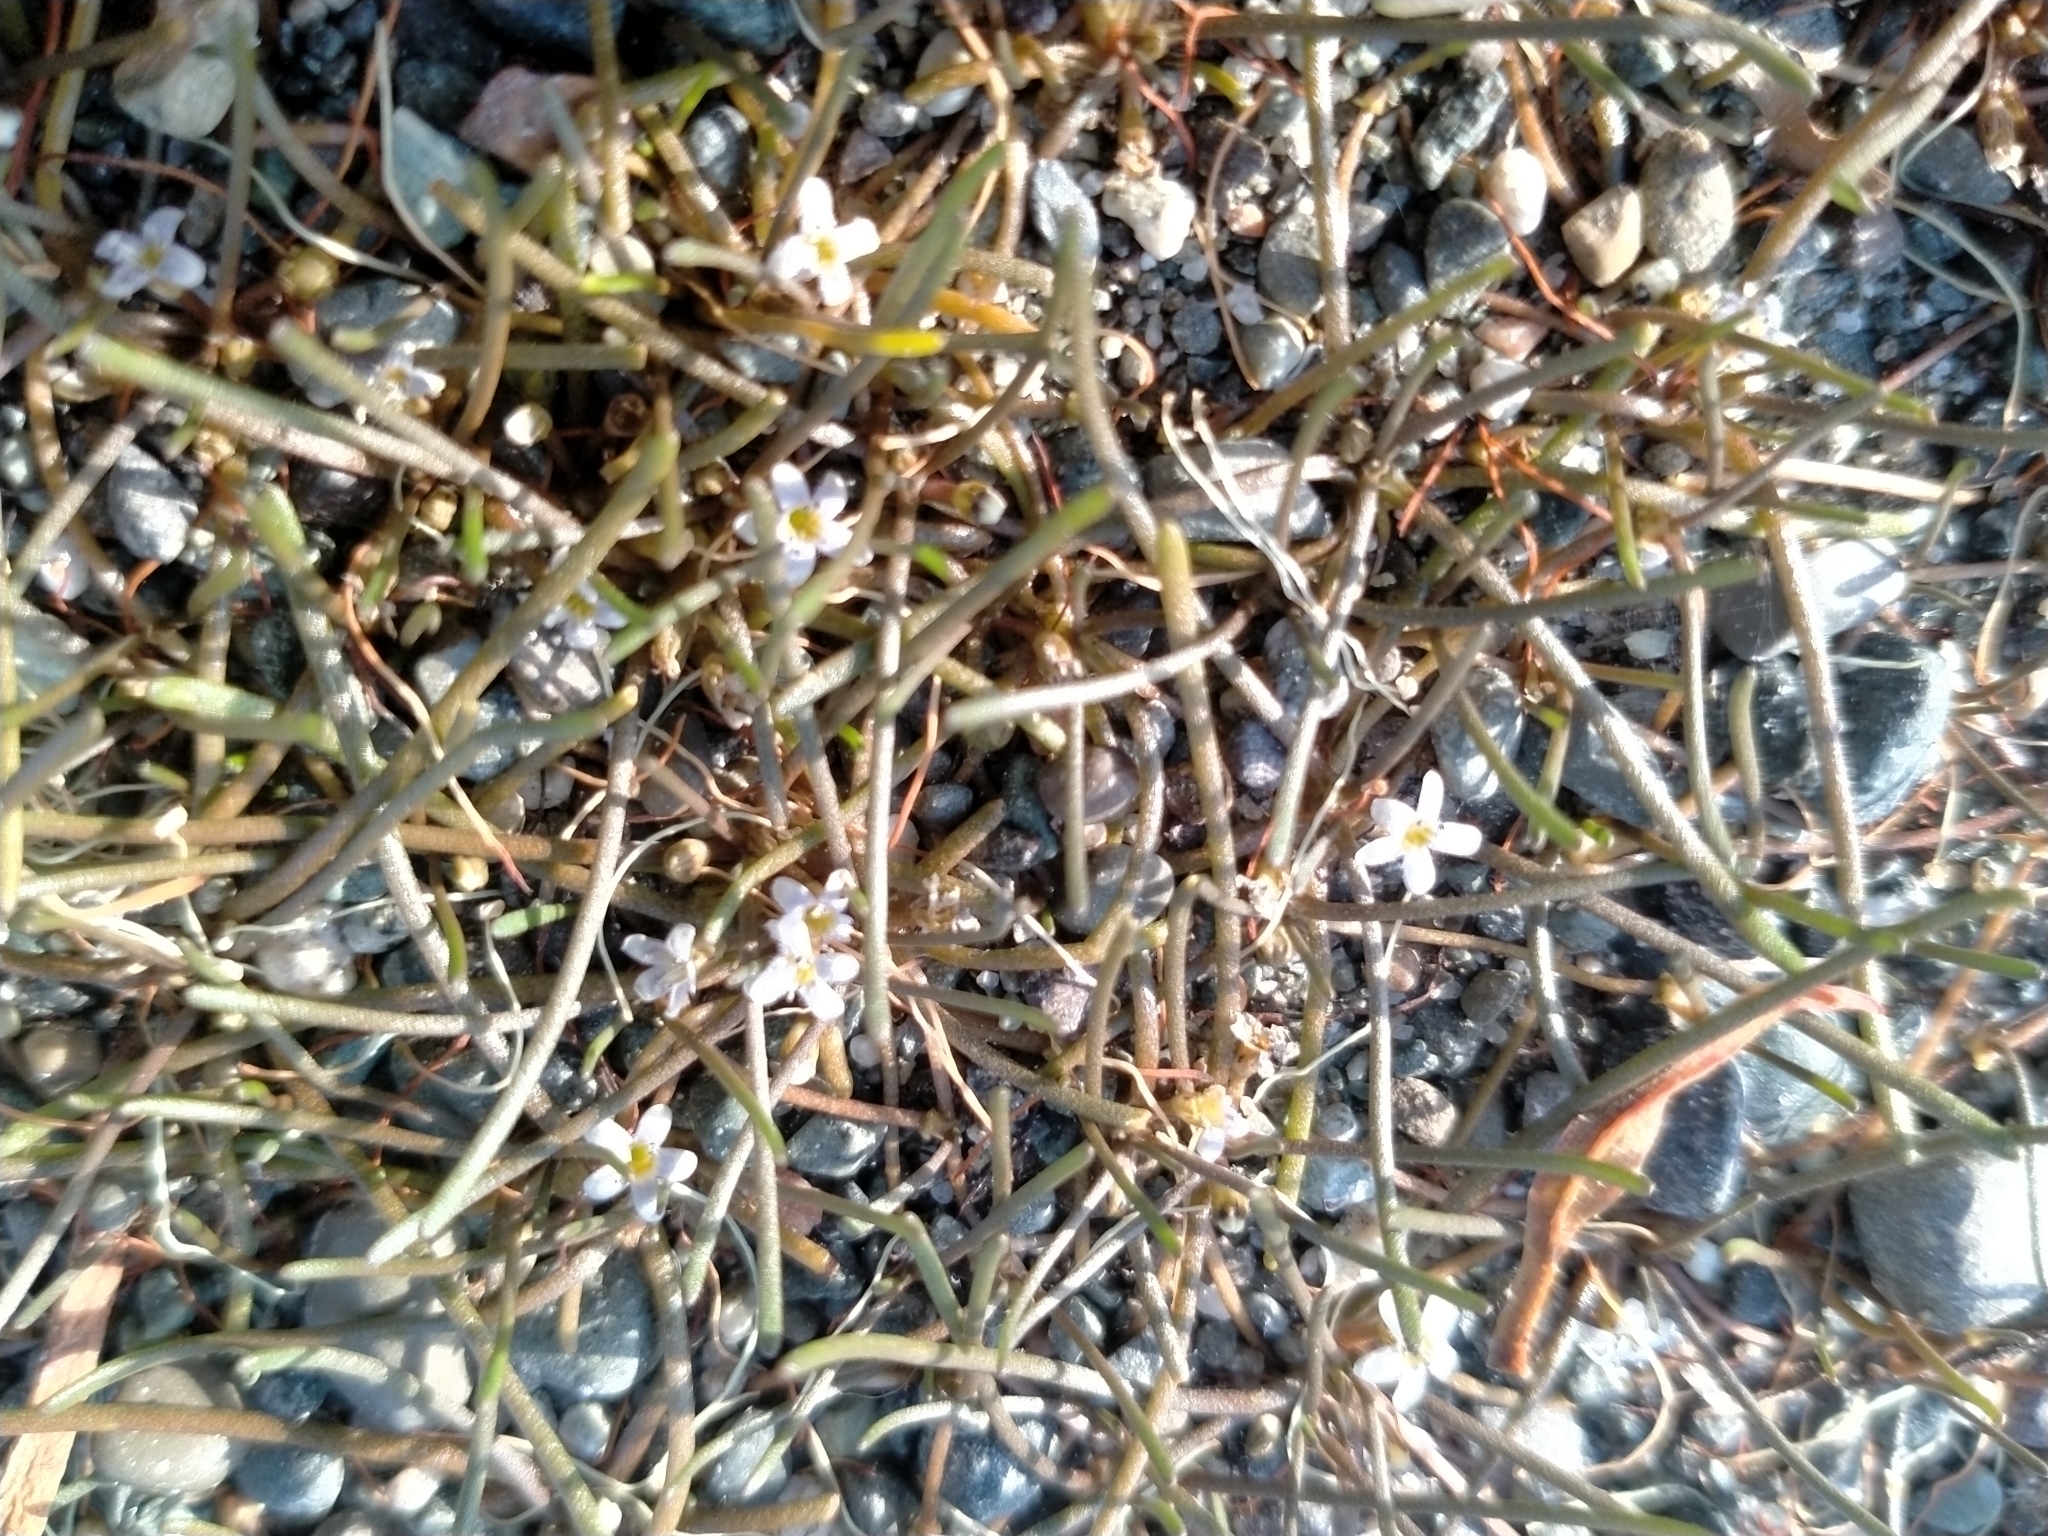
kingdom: Plantae
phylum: Tracheophyta
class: Magnoliopsida
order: Lamiales
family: Scrophulariaceae
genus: Limosella
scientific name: Limosella australis
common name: Welsh mudwort
